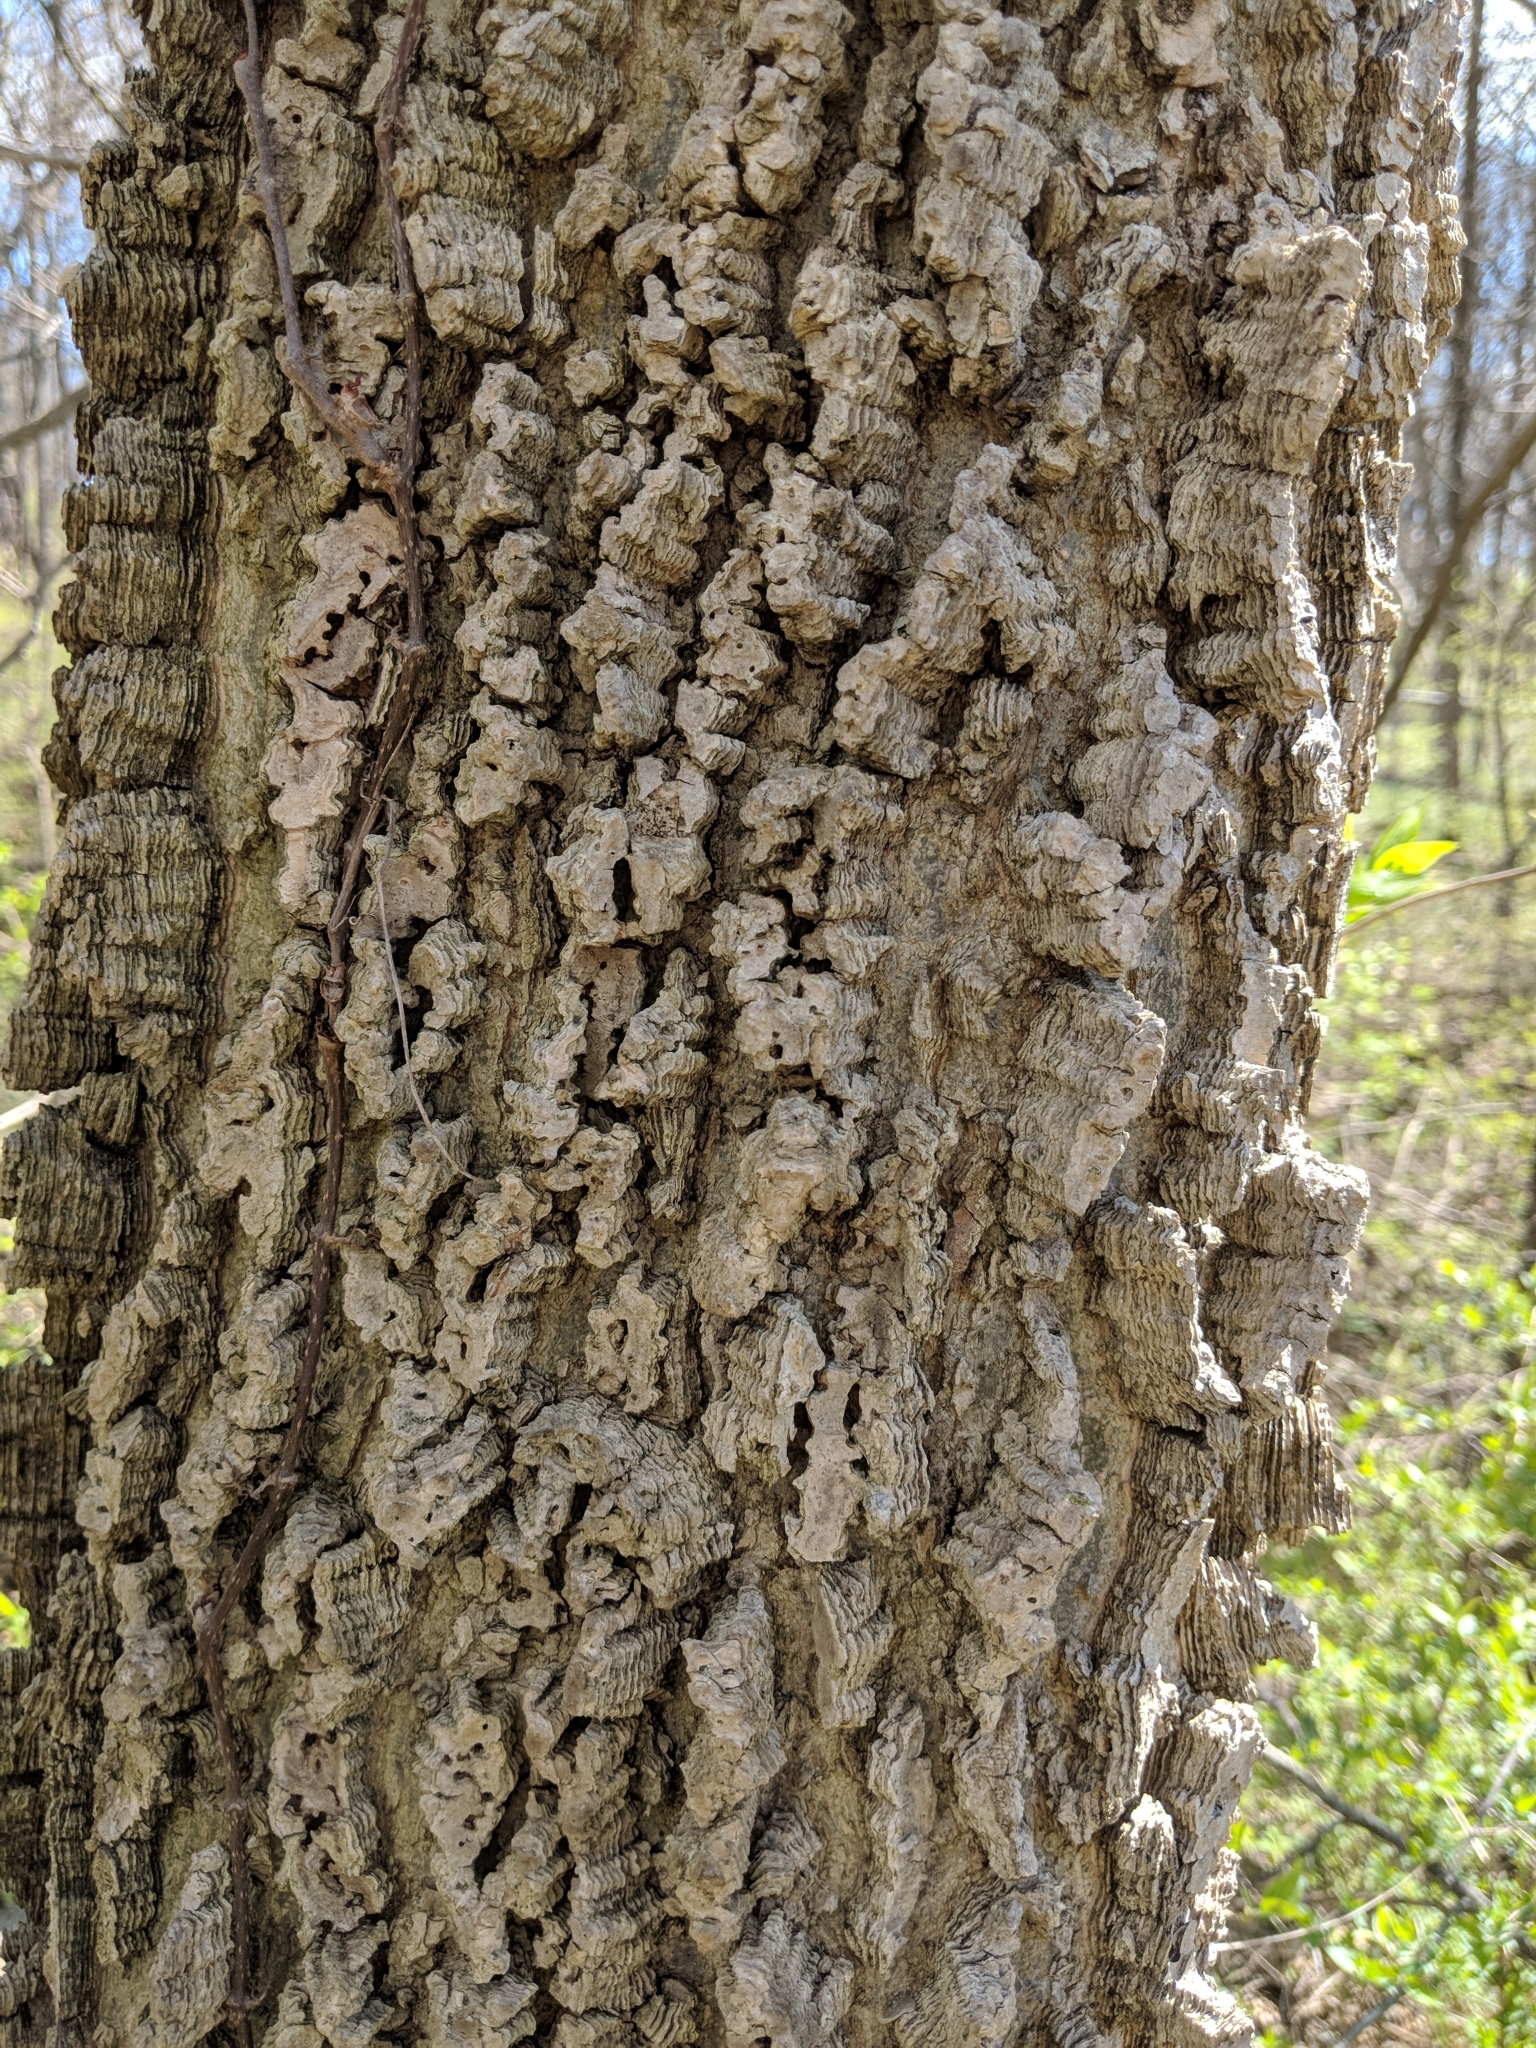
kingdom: Plantae
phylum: Tracheophyta
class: Magnoliopsida
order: Rosales
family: Cannabaceae
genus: Celtis
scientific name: Celtis occidentalis
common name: Common hackberry
